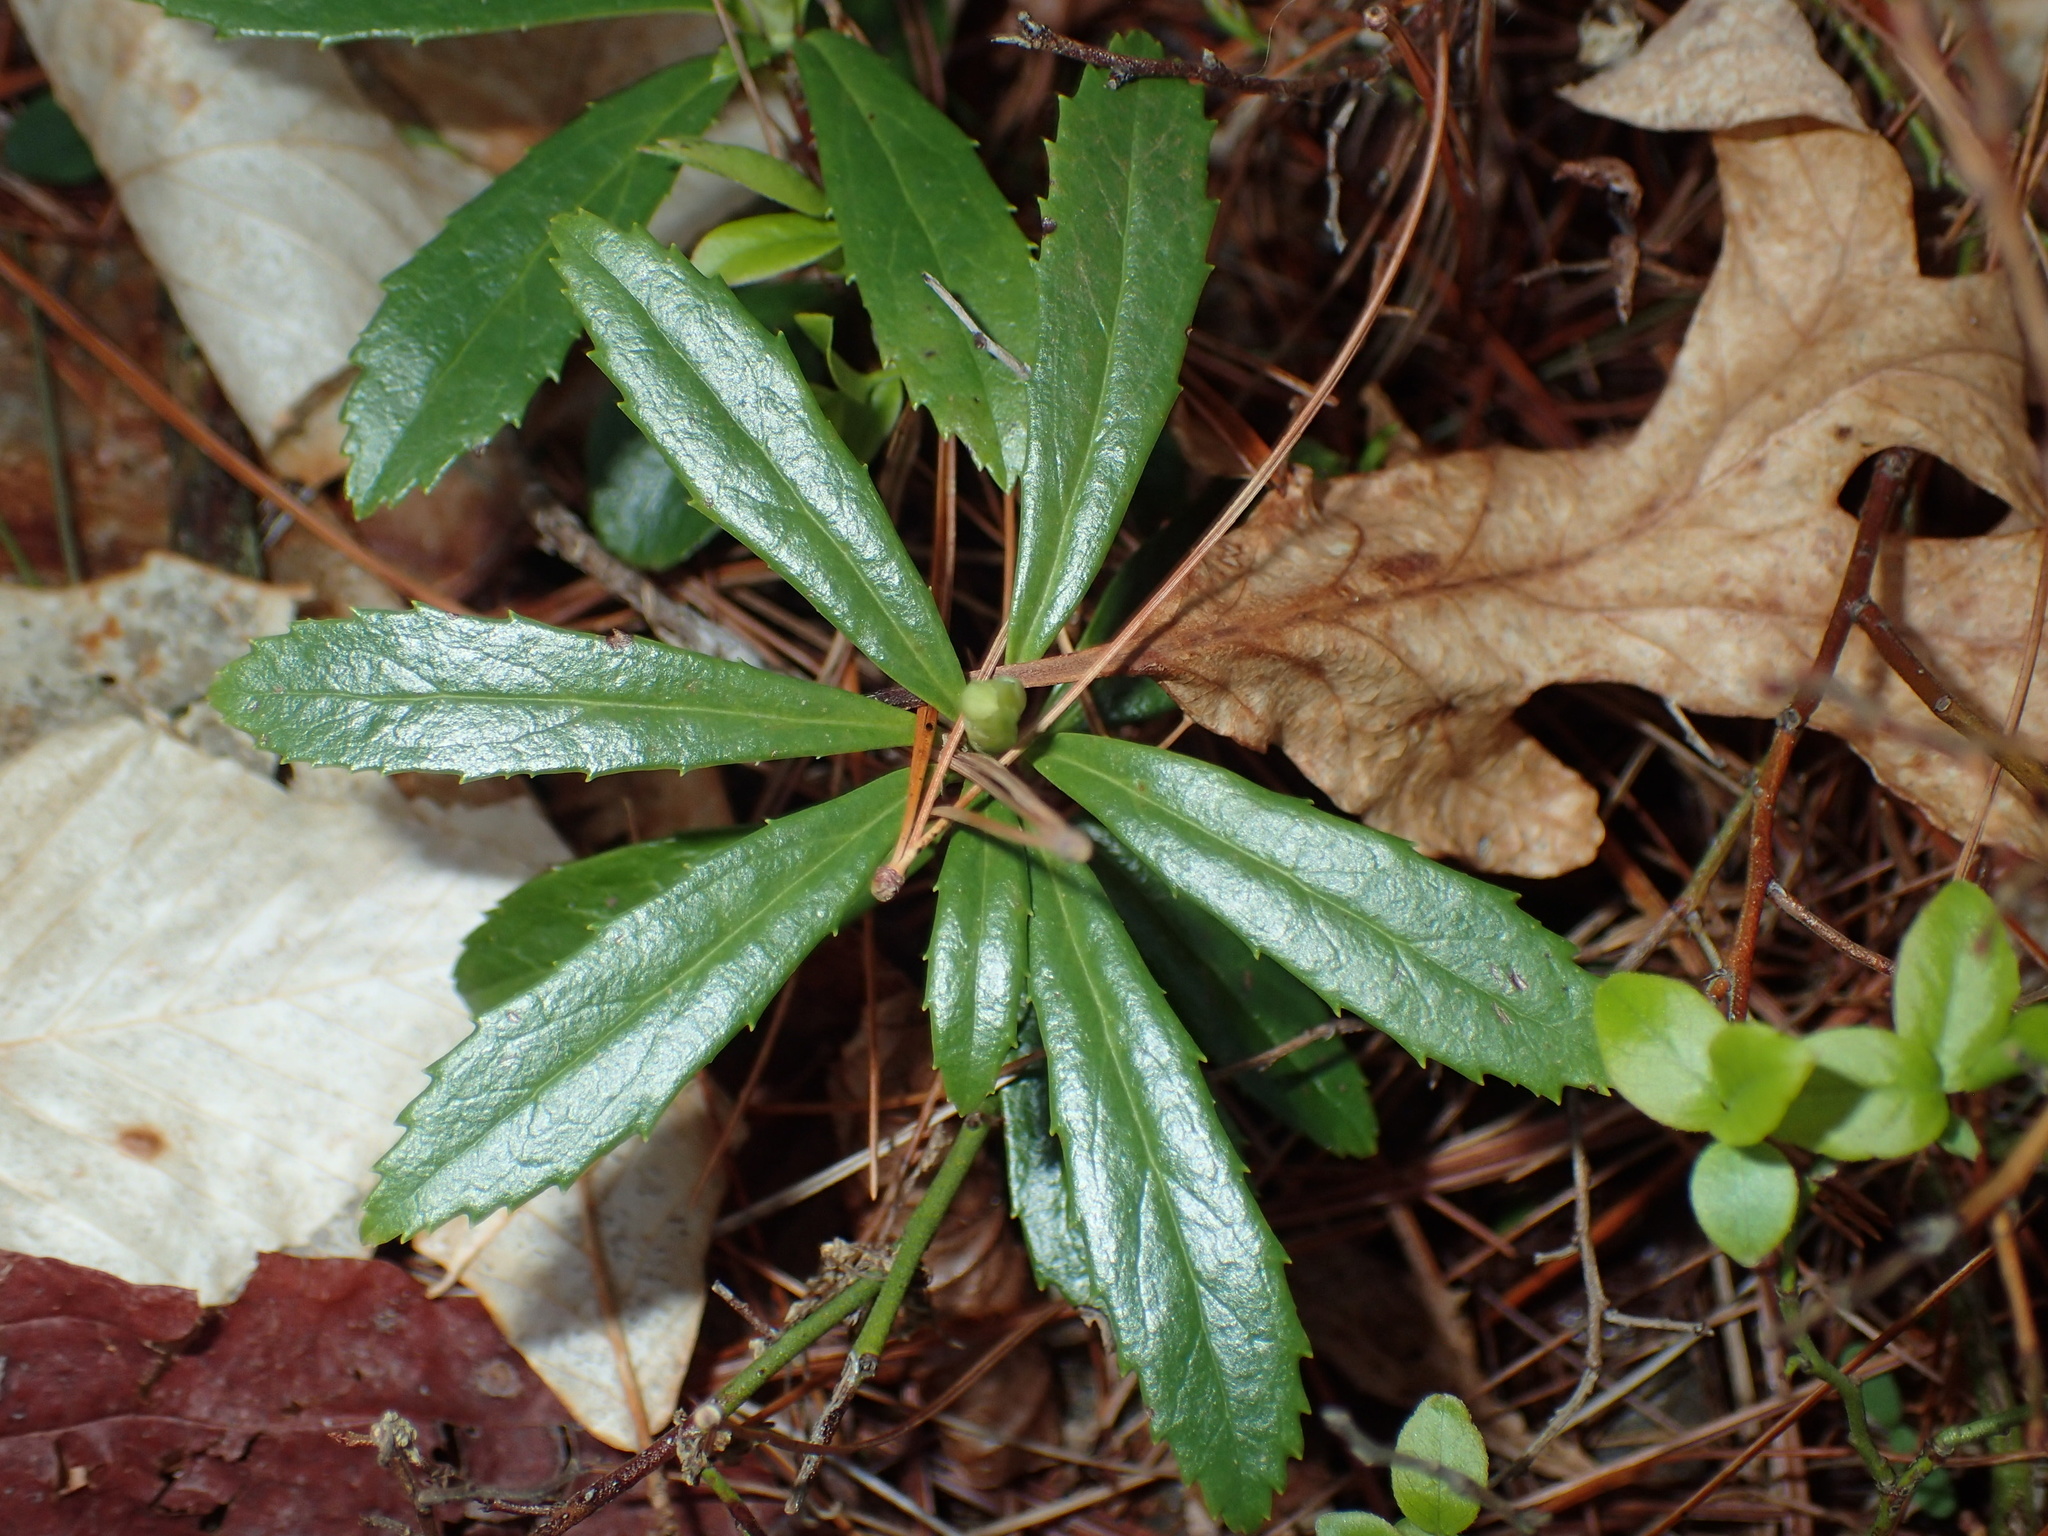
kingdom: Plantae
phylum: Tracheophyta
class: Magnoliopsida
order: Ericales
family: Ericaceae
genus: Chimaphila
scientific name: Chimaphila umbellata
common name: Pipsissewa
